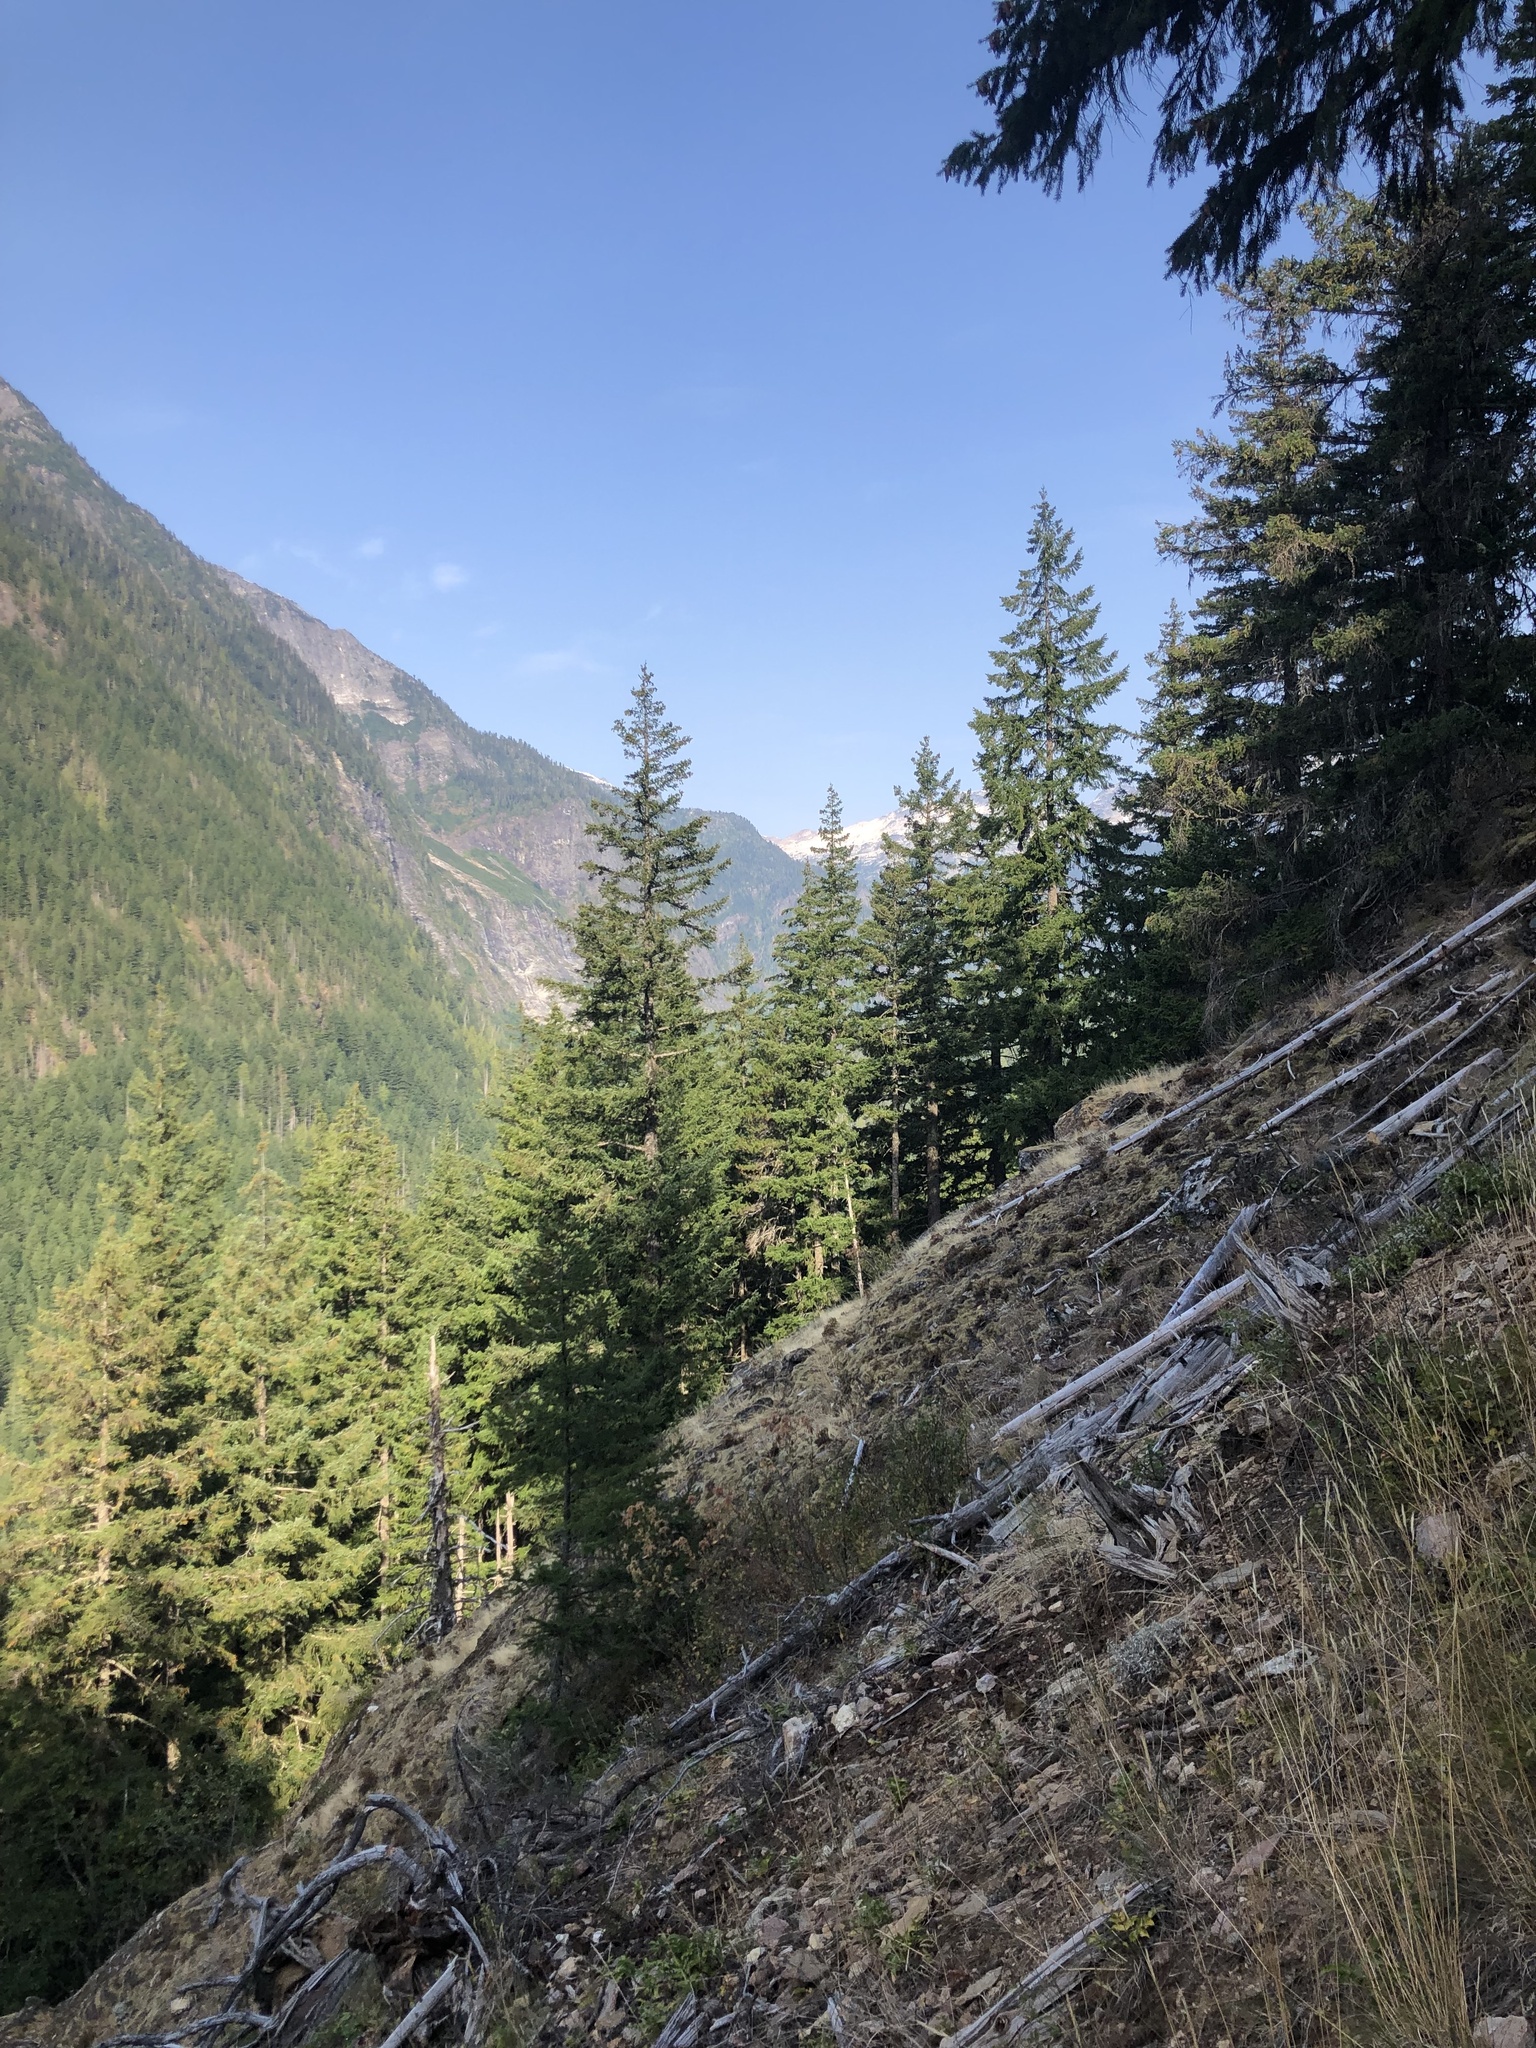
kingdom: Plantae
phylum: Tracheophyta
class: Pinopsida
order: Pinales
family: Pinaceae
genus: Pseudotsuga
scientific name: Pseudotsuga menziesii
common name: Douglas fir
